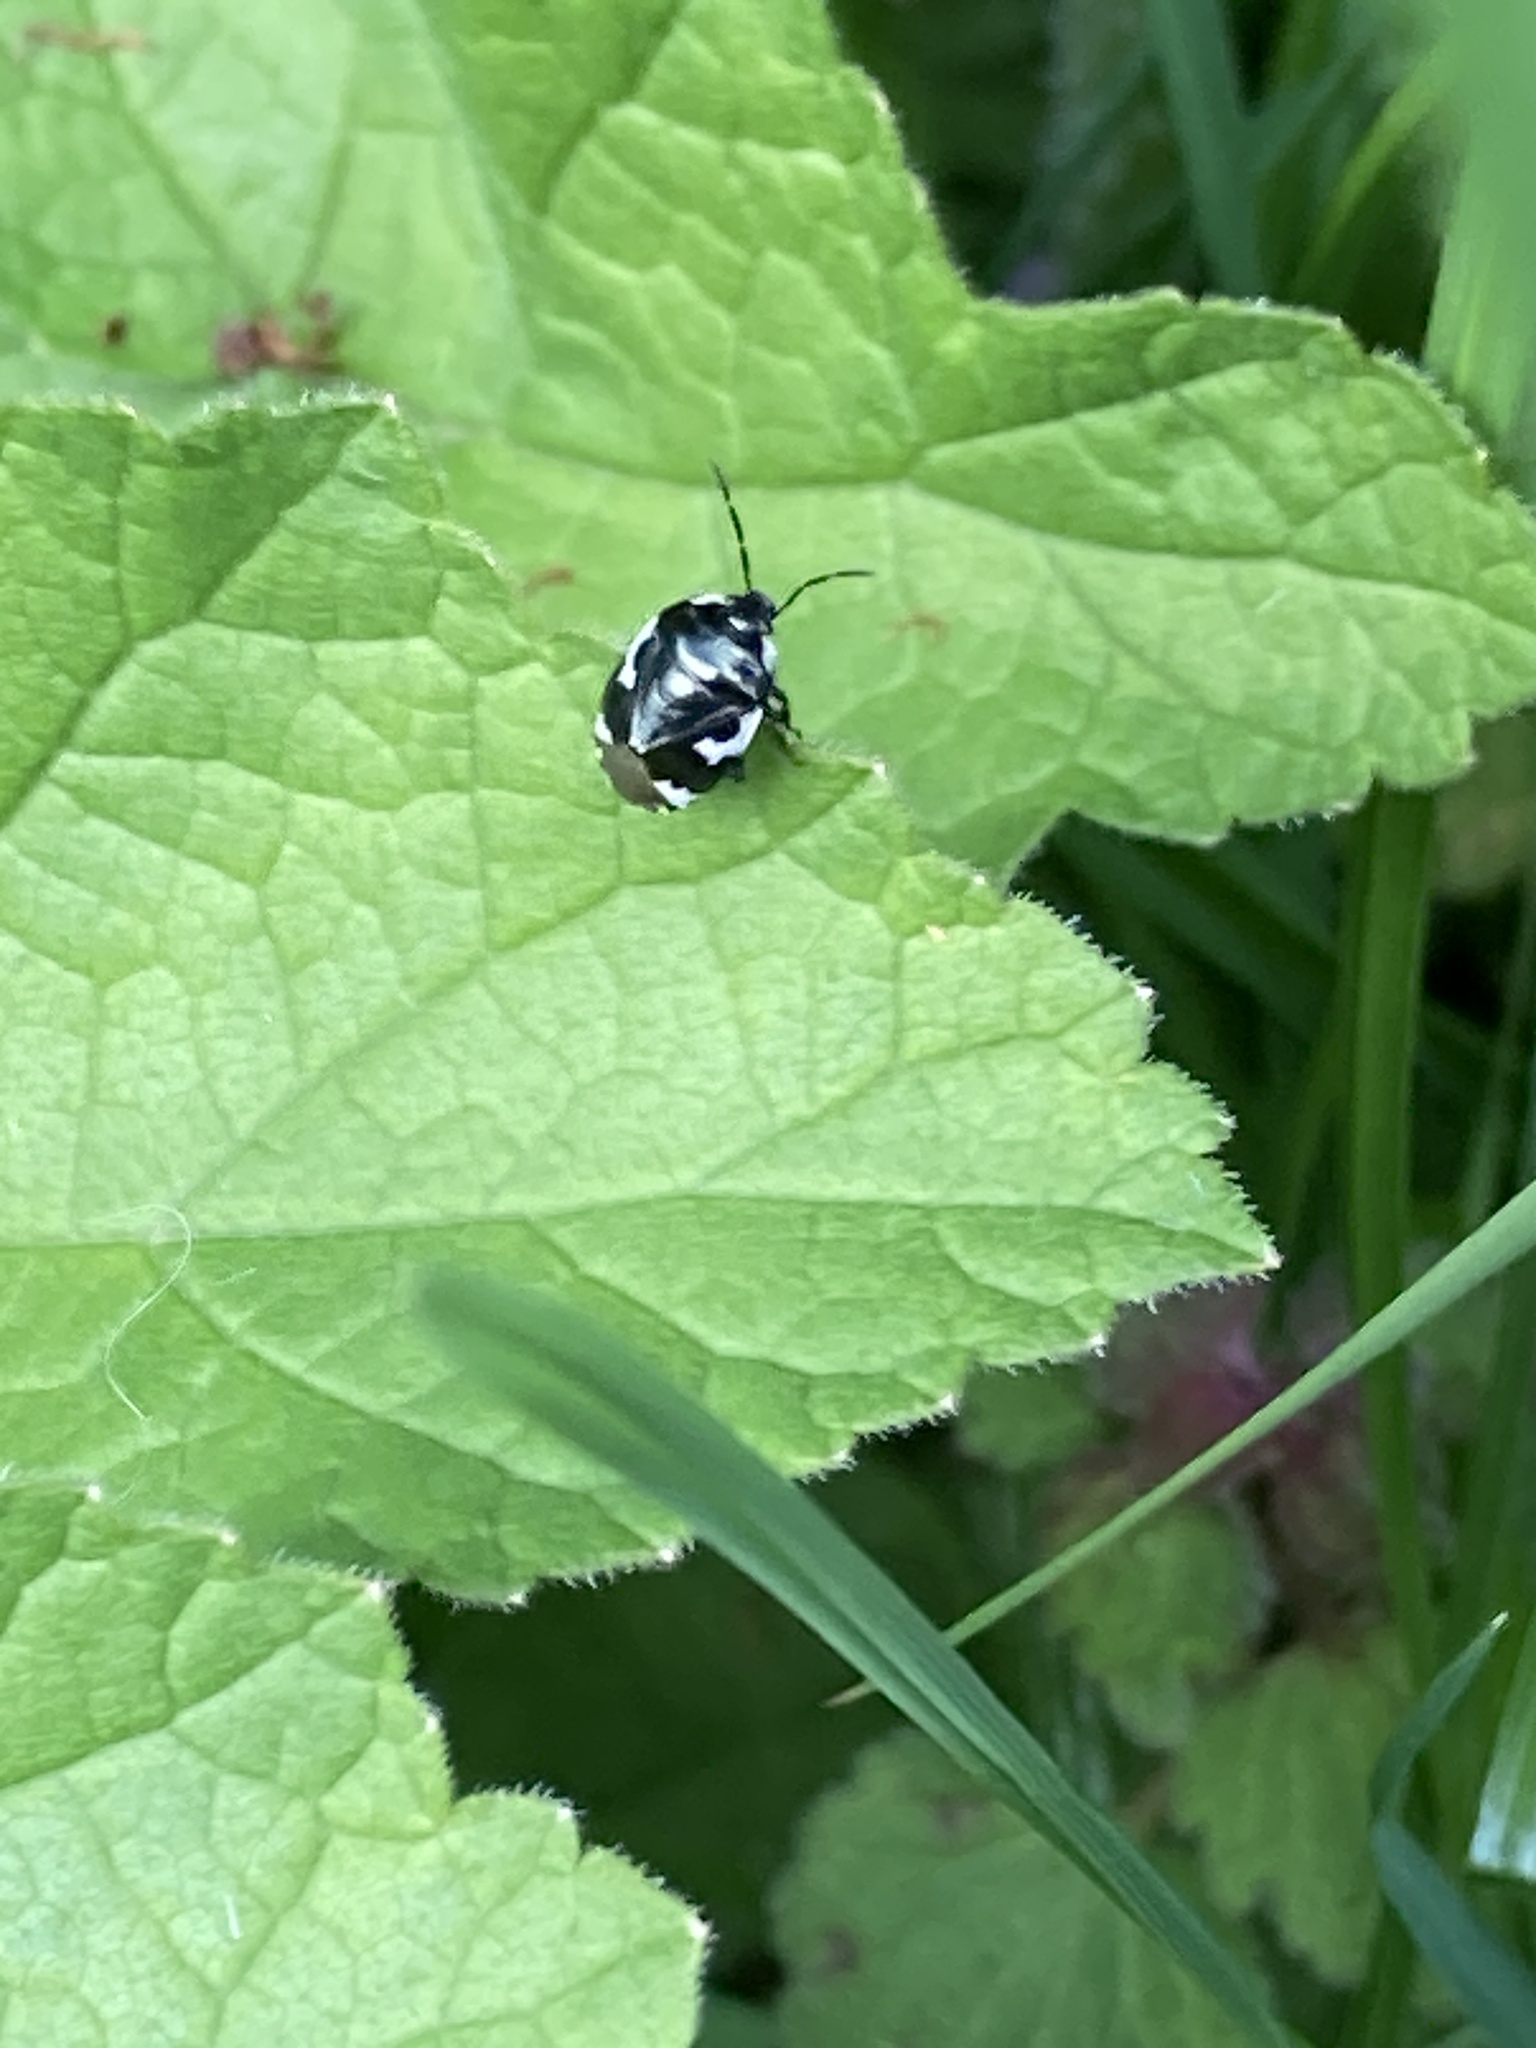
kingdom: Animalia
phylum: Arthropoda
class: Insecta
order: Hemiptera
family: Cydnidae
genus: Tritomegas
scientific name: Tritomegas bicolor
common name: Pied shieldbug
